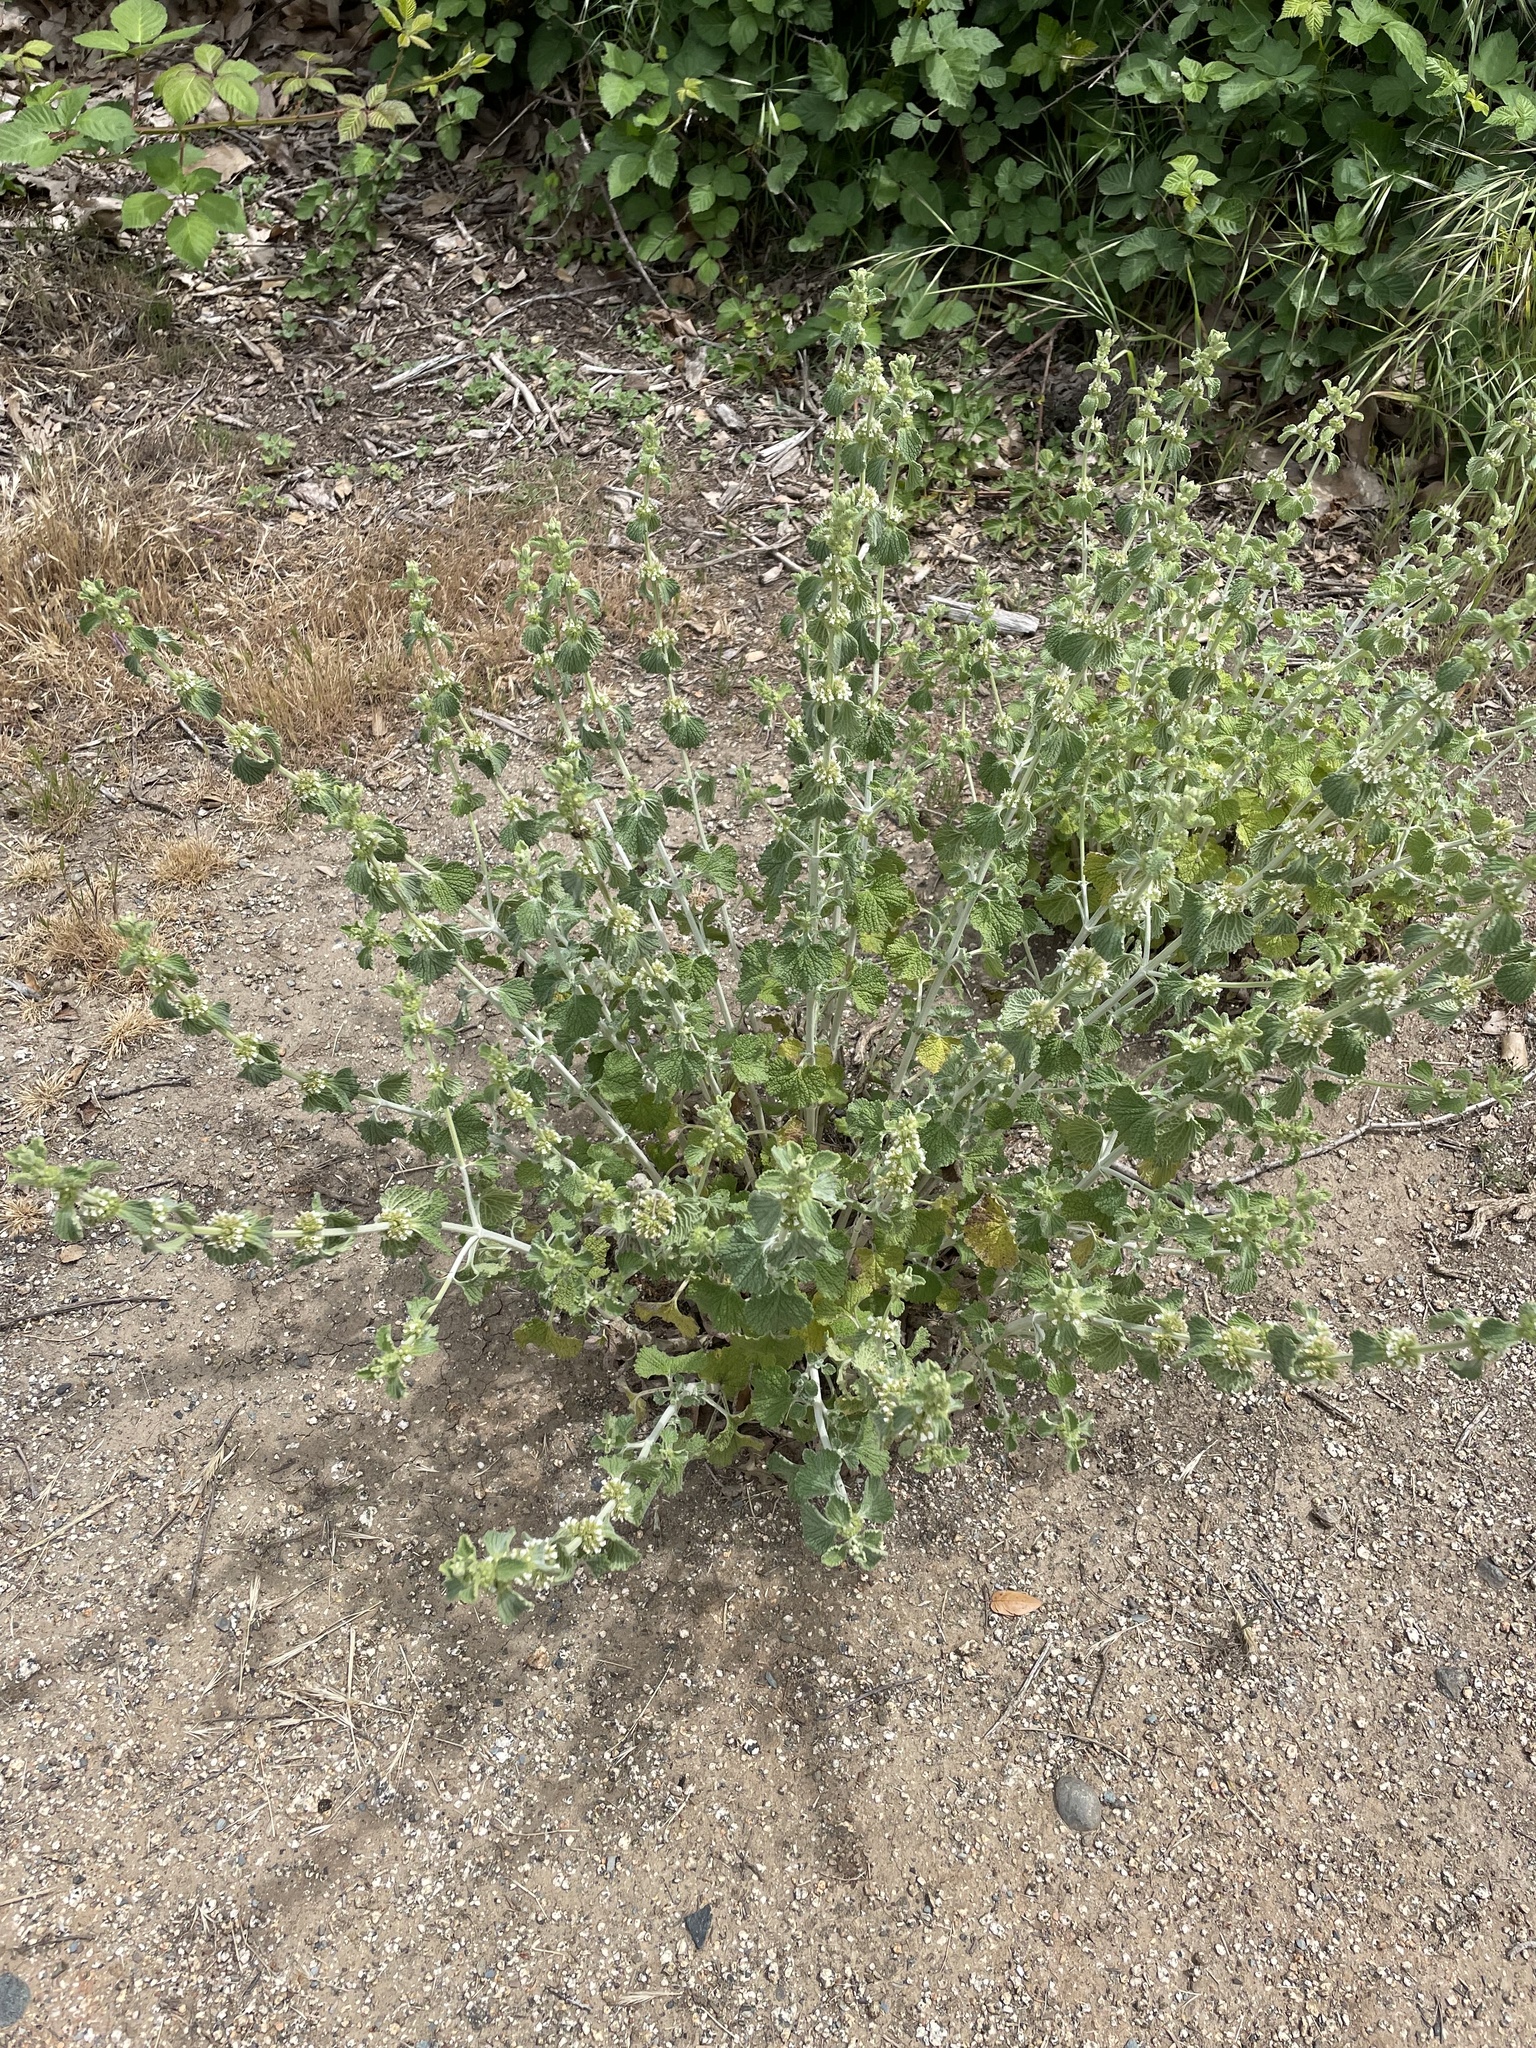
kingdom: Plantae
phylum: Tracheophyta
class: Magnoliopsida
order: Lamiales
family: Lamiaceae
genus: Marrubium
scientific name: Marrubium vulgare
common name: Horehound
